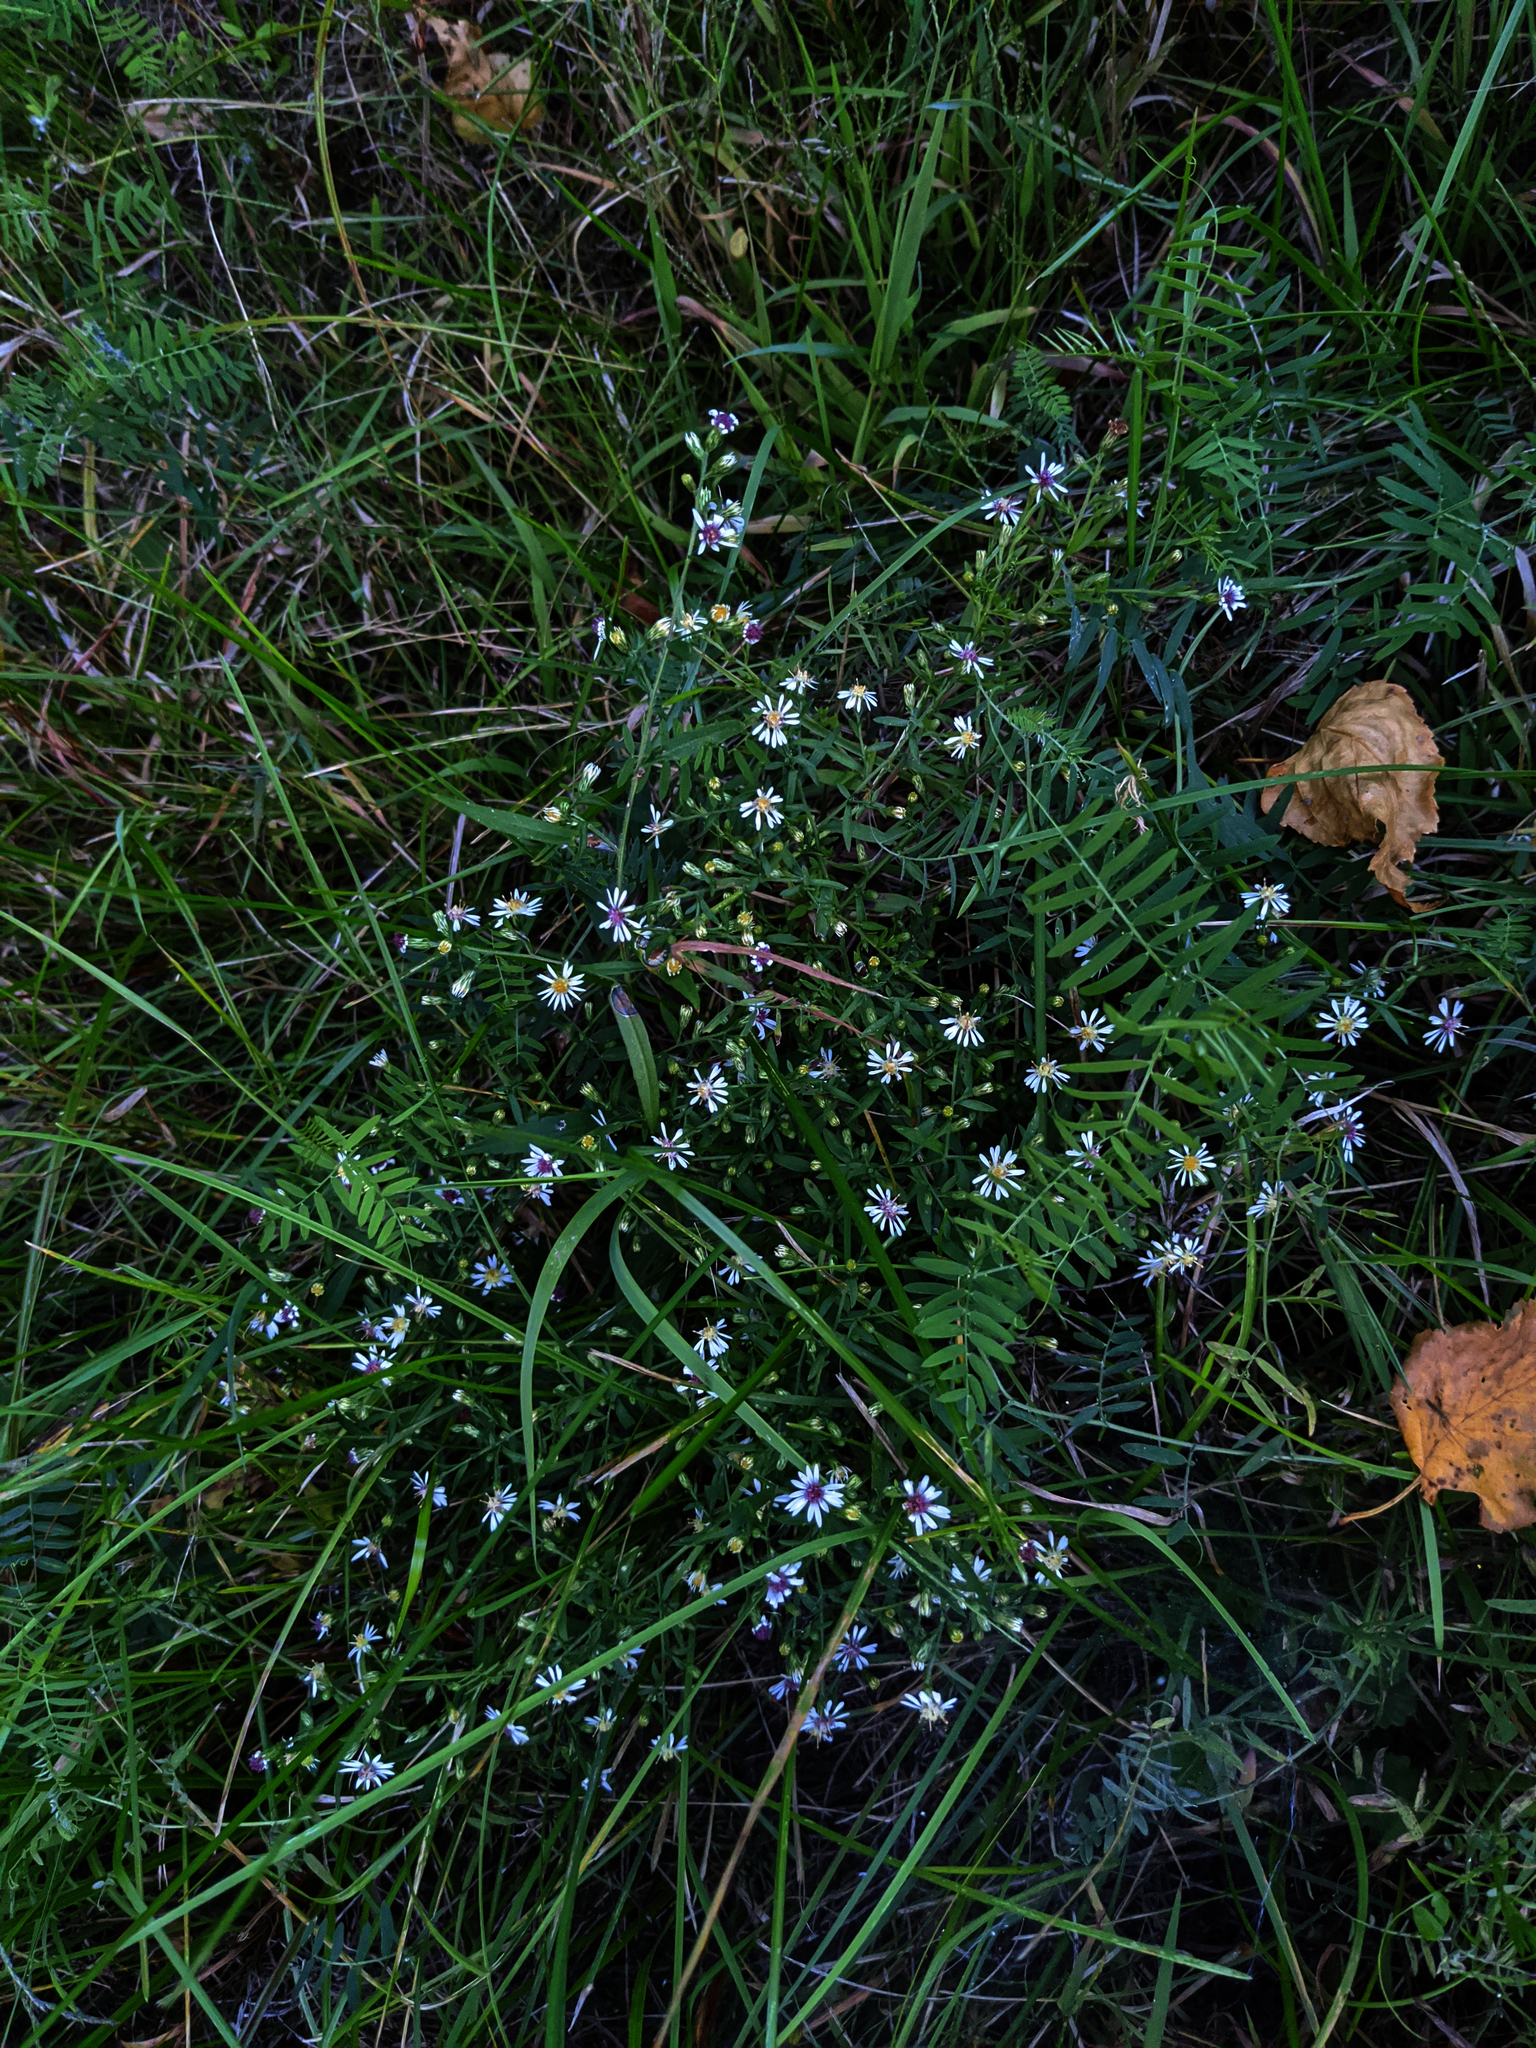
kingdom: Plantae
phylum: Tracheophyta
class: Magnoliopsida
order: Asterales
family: Asteraceae
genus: Symphyotrichum
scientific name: Symphyotrichum lateriflorum
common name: Calico aster
